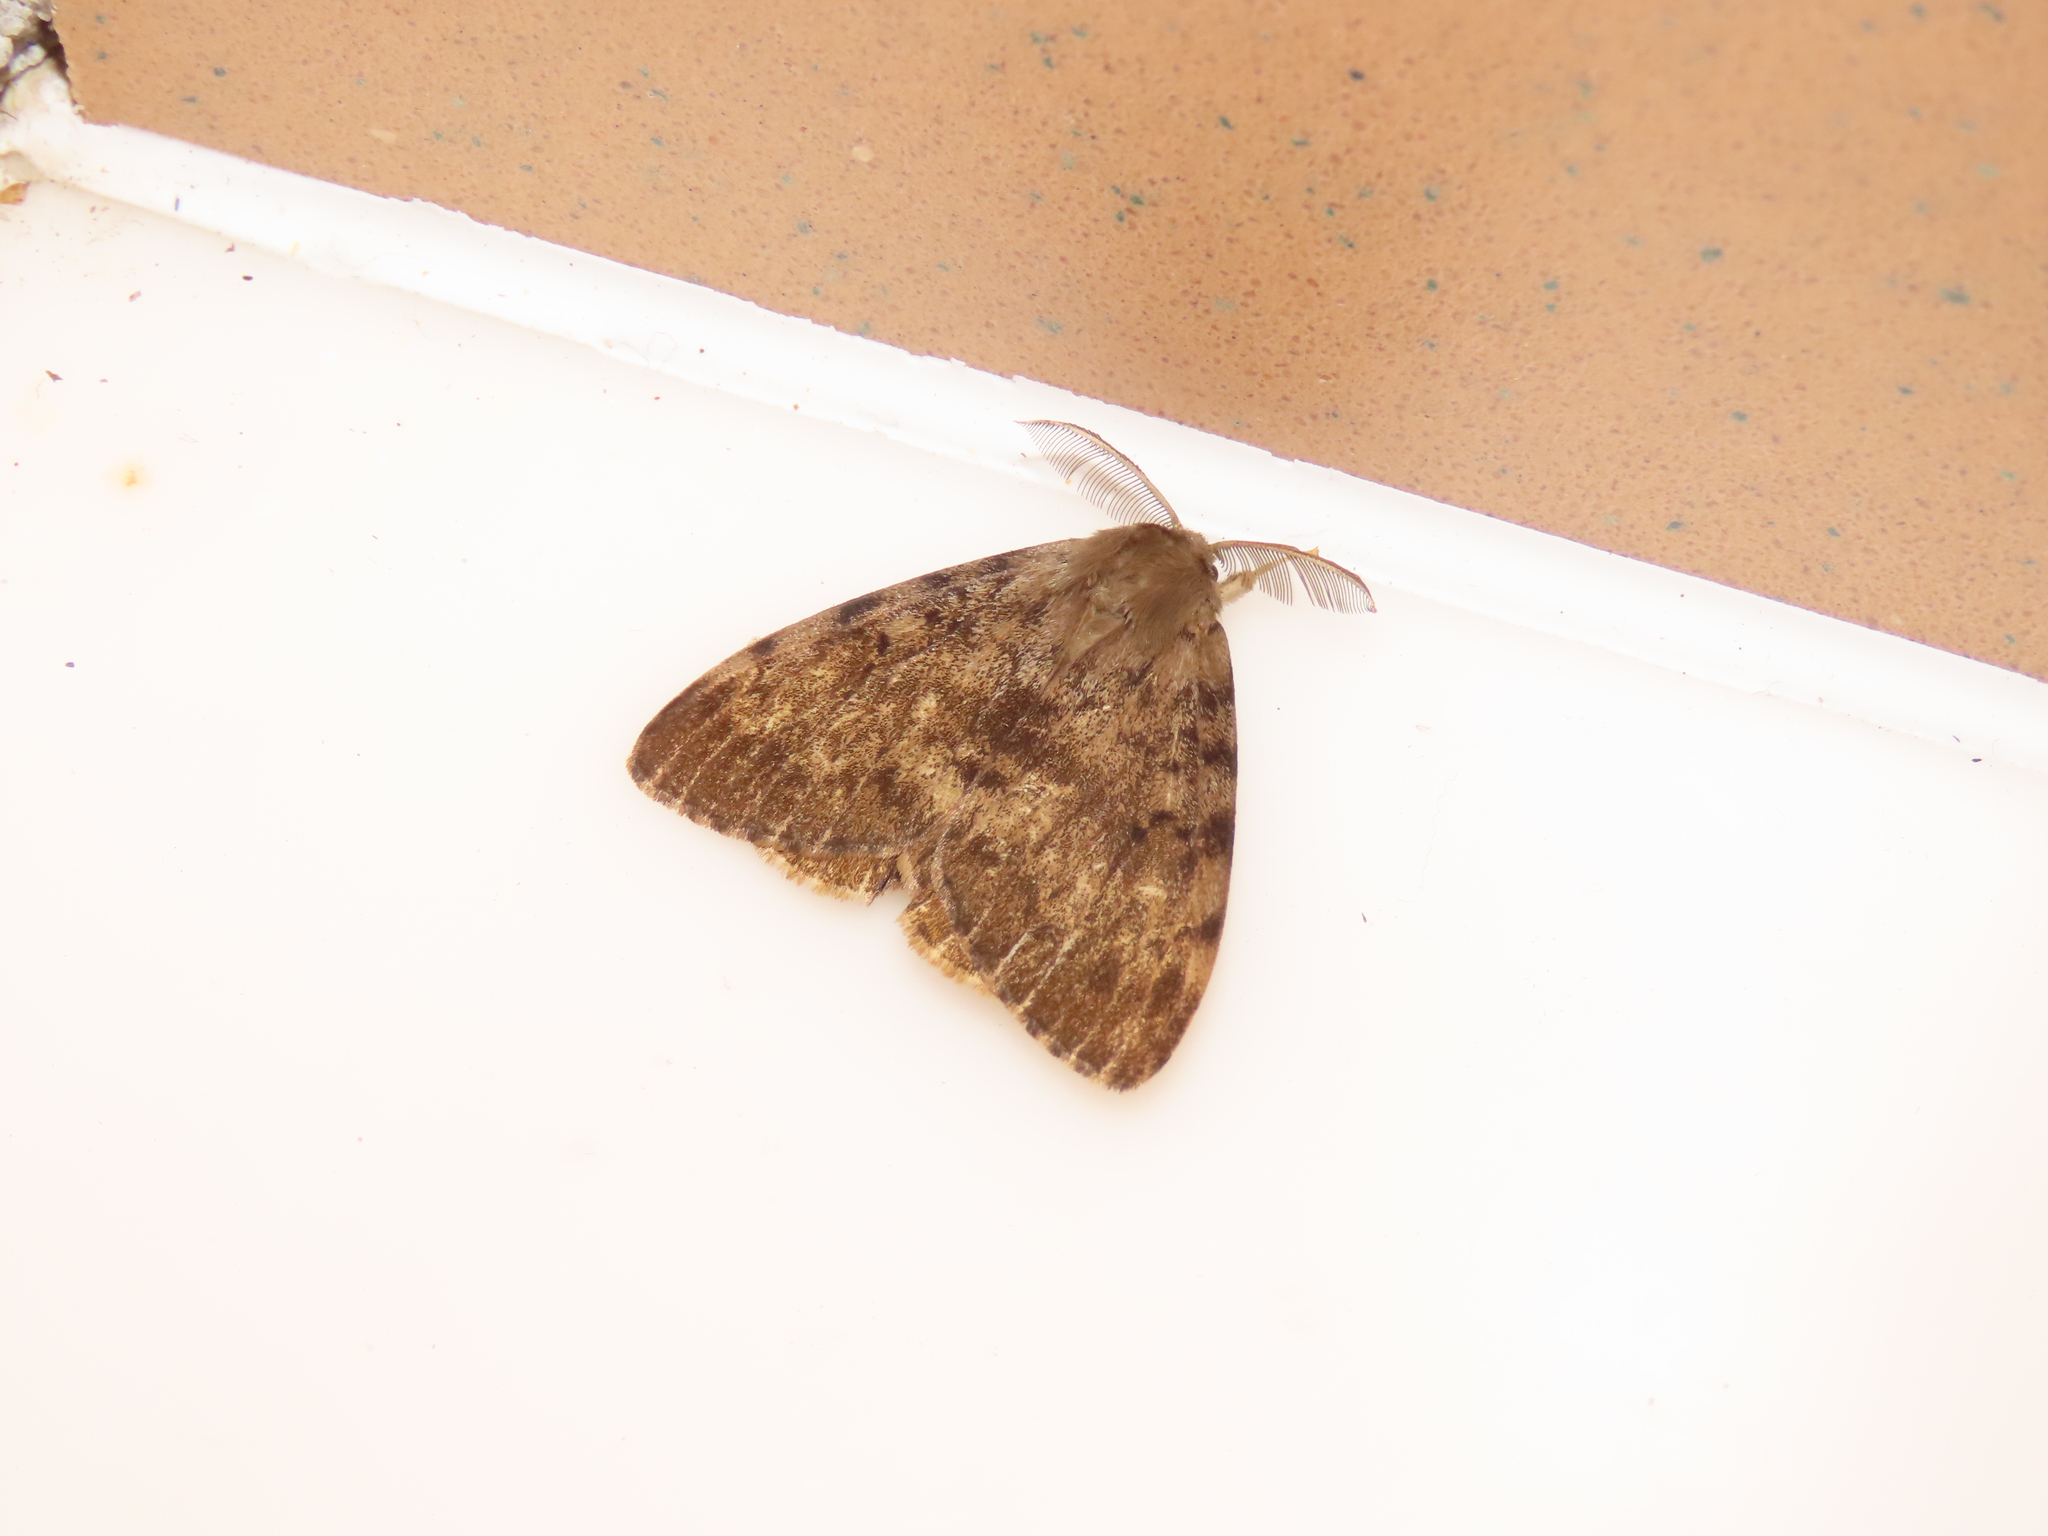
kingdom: Animalia
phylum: Arthropoda
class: Insecta
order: Lepidoptera
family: Erebidae
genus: Lymantria
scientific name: Lymantria dispar
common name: Gypsy moth
